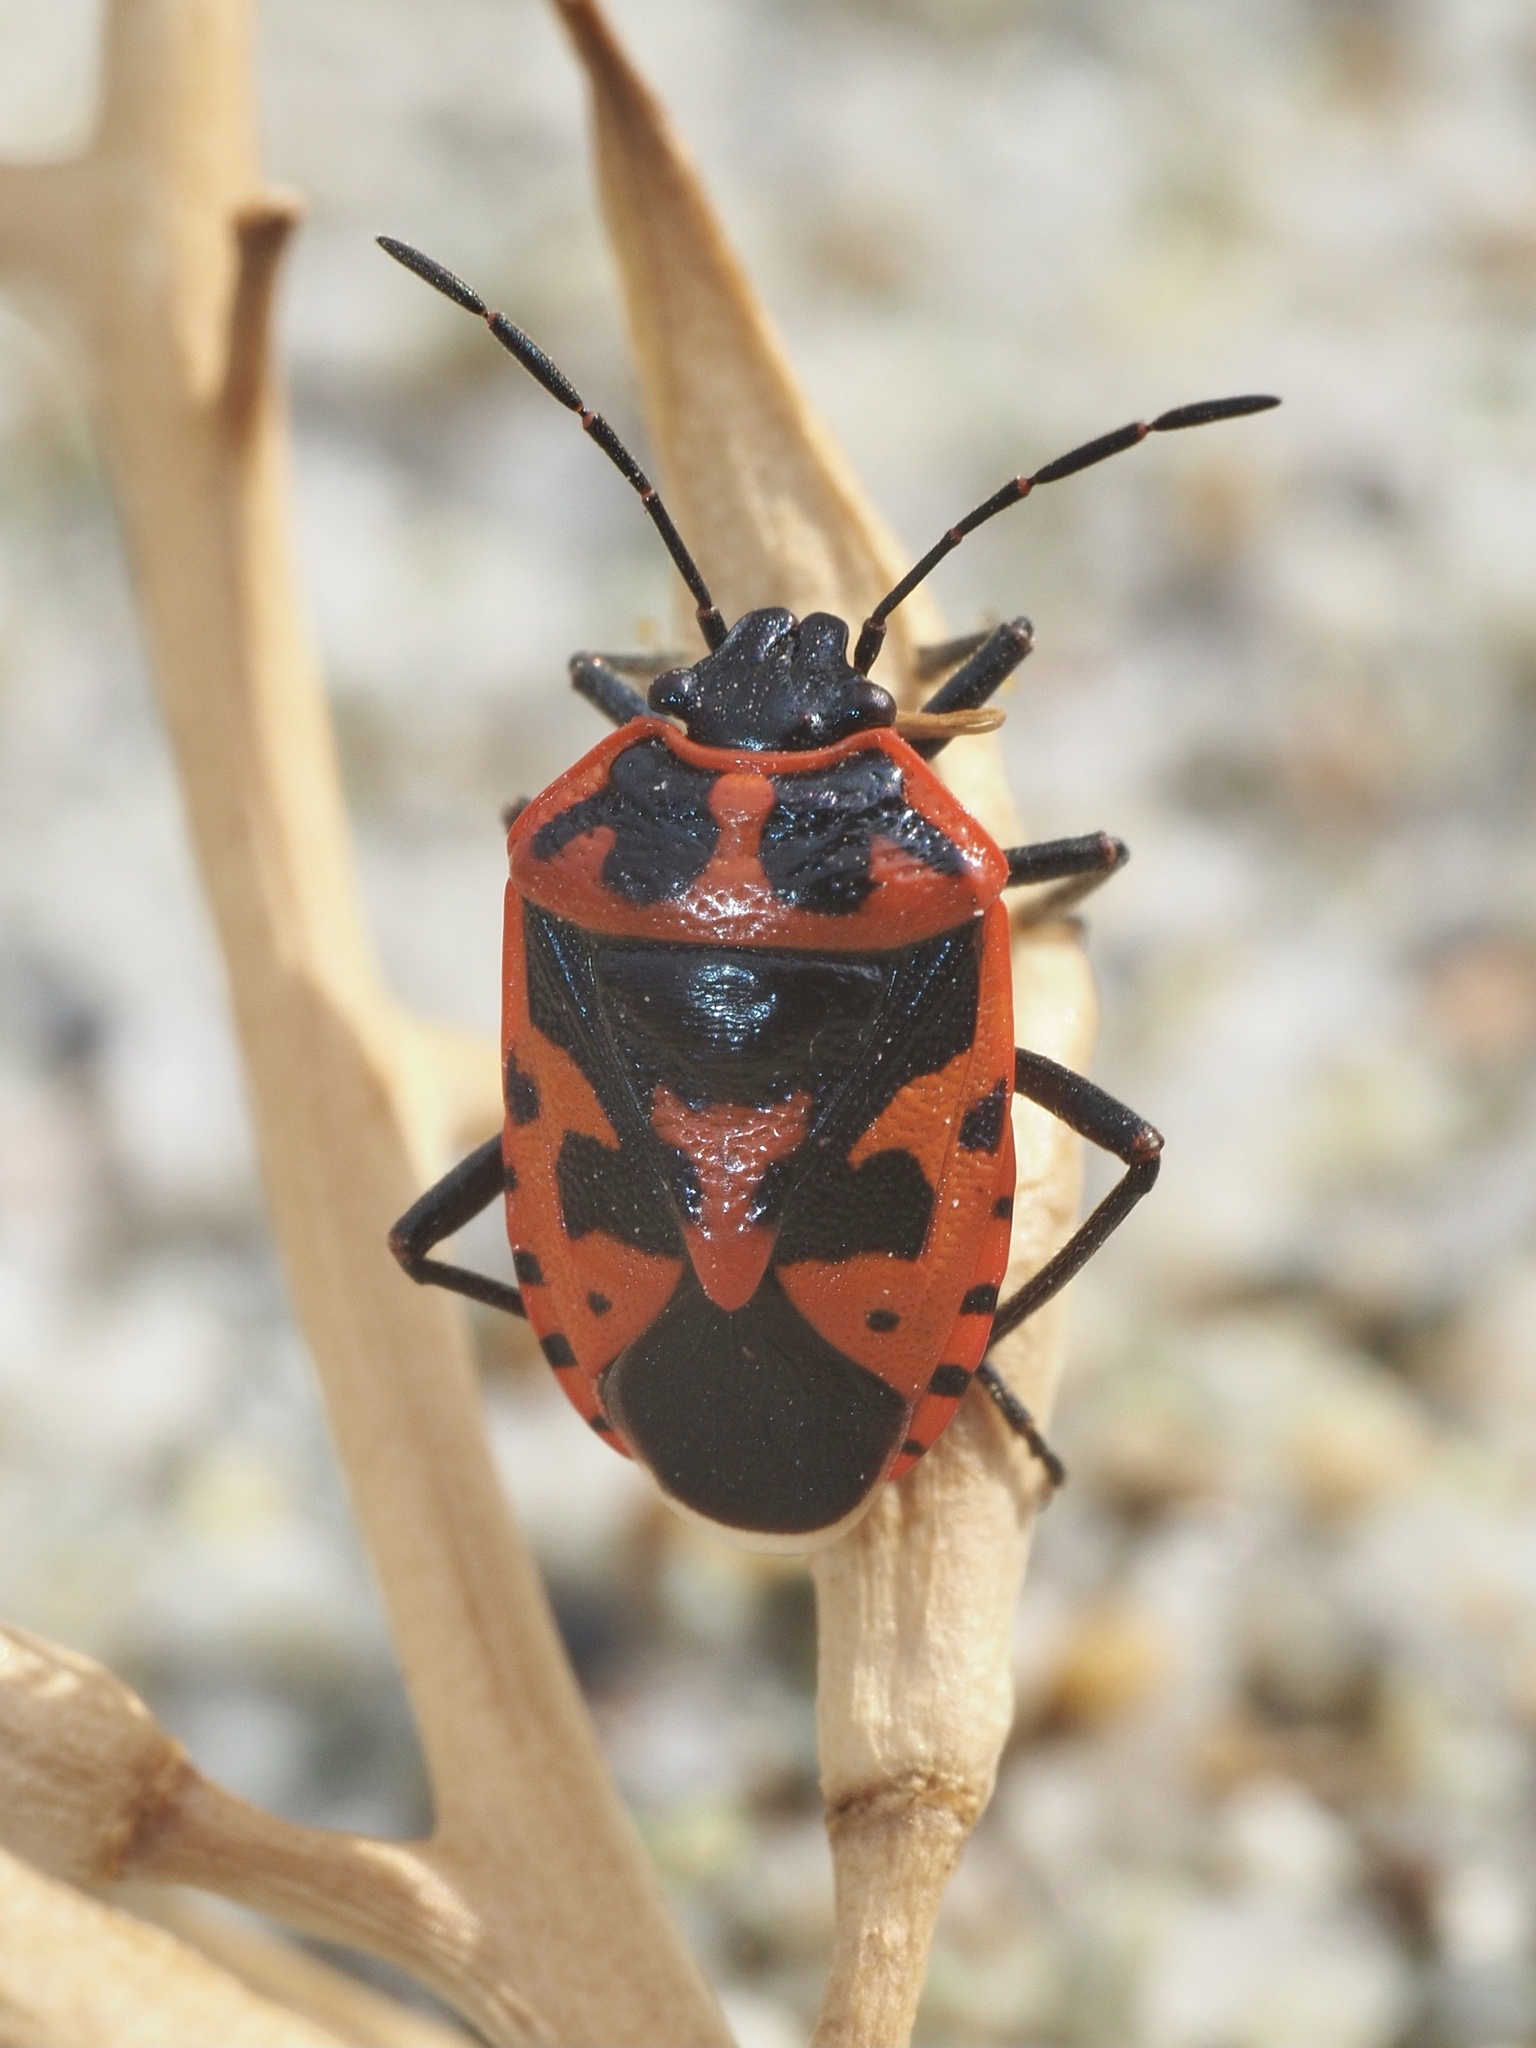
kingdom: Animalia
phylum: Arthropoda
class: Insecta
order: Hemiptera
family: Pentatomidae
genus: Eurydema
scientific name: Eurydema spectabilis
